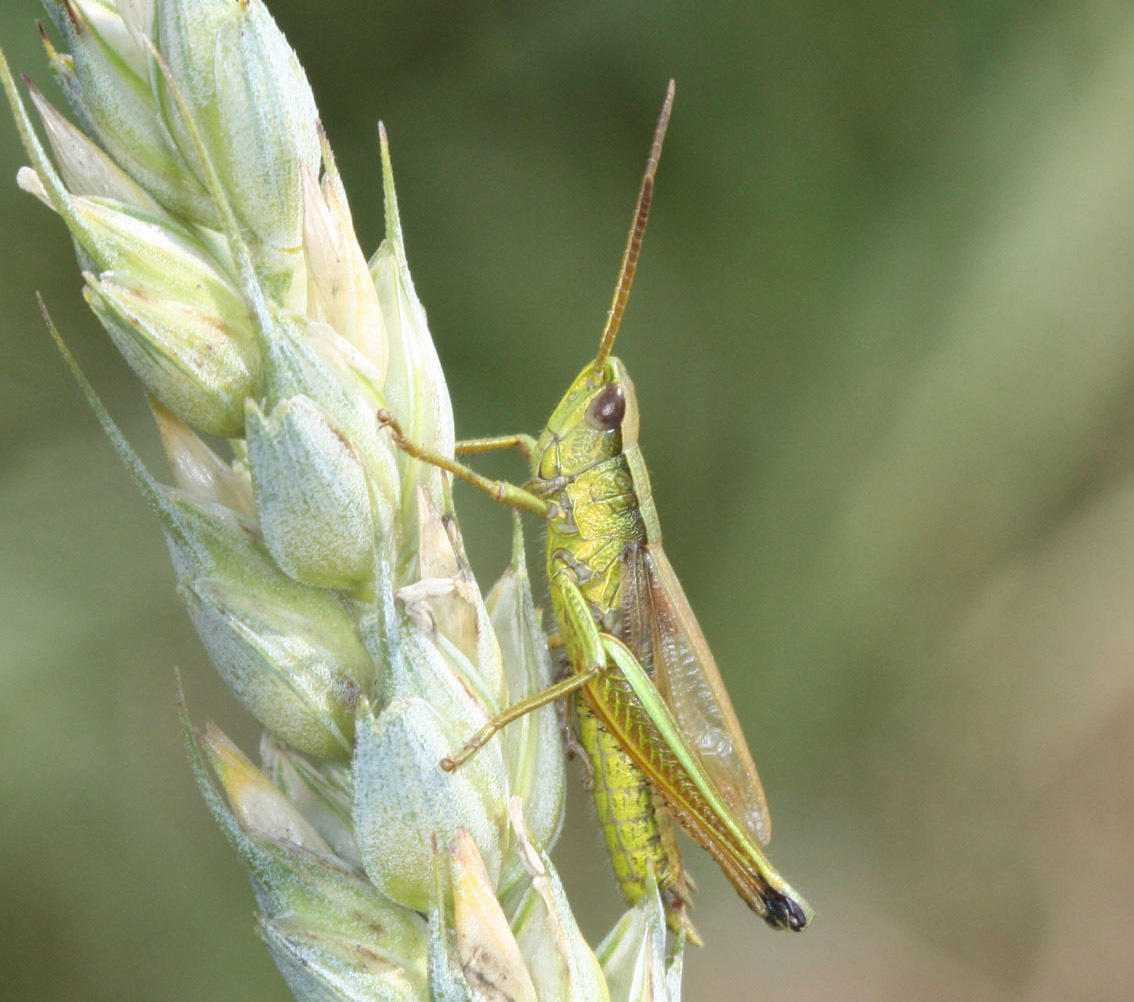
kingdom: Animalia
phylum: Arthropoda
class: Insecta
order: Orthoptera
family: Acrididae
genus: Chrysochraon
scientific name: Chrysochraon dispar
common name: Large gold grasshopper
